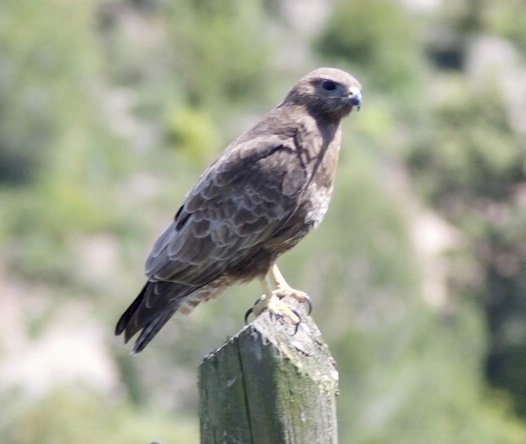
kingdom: Animalia
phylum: Chordata
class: Aves
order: Accipitriformes
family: Accipitridae
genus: Buteo
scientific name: Buteo buteo
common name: Common buzzard
